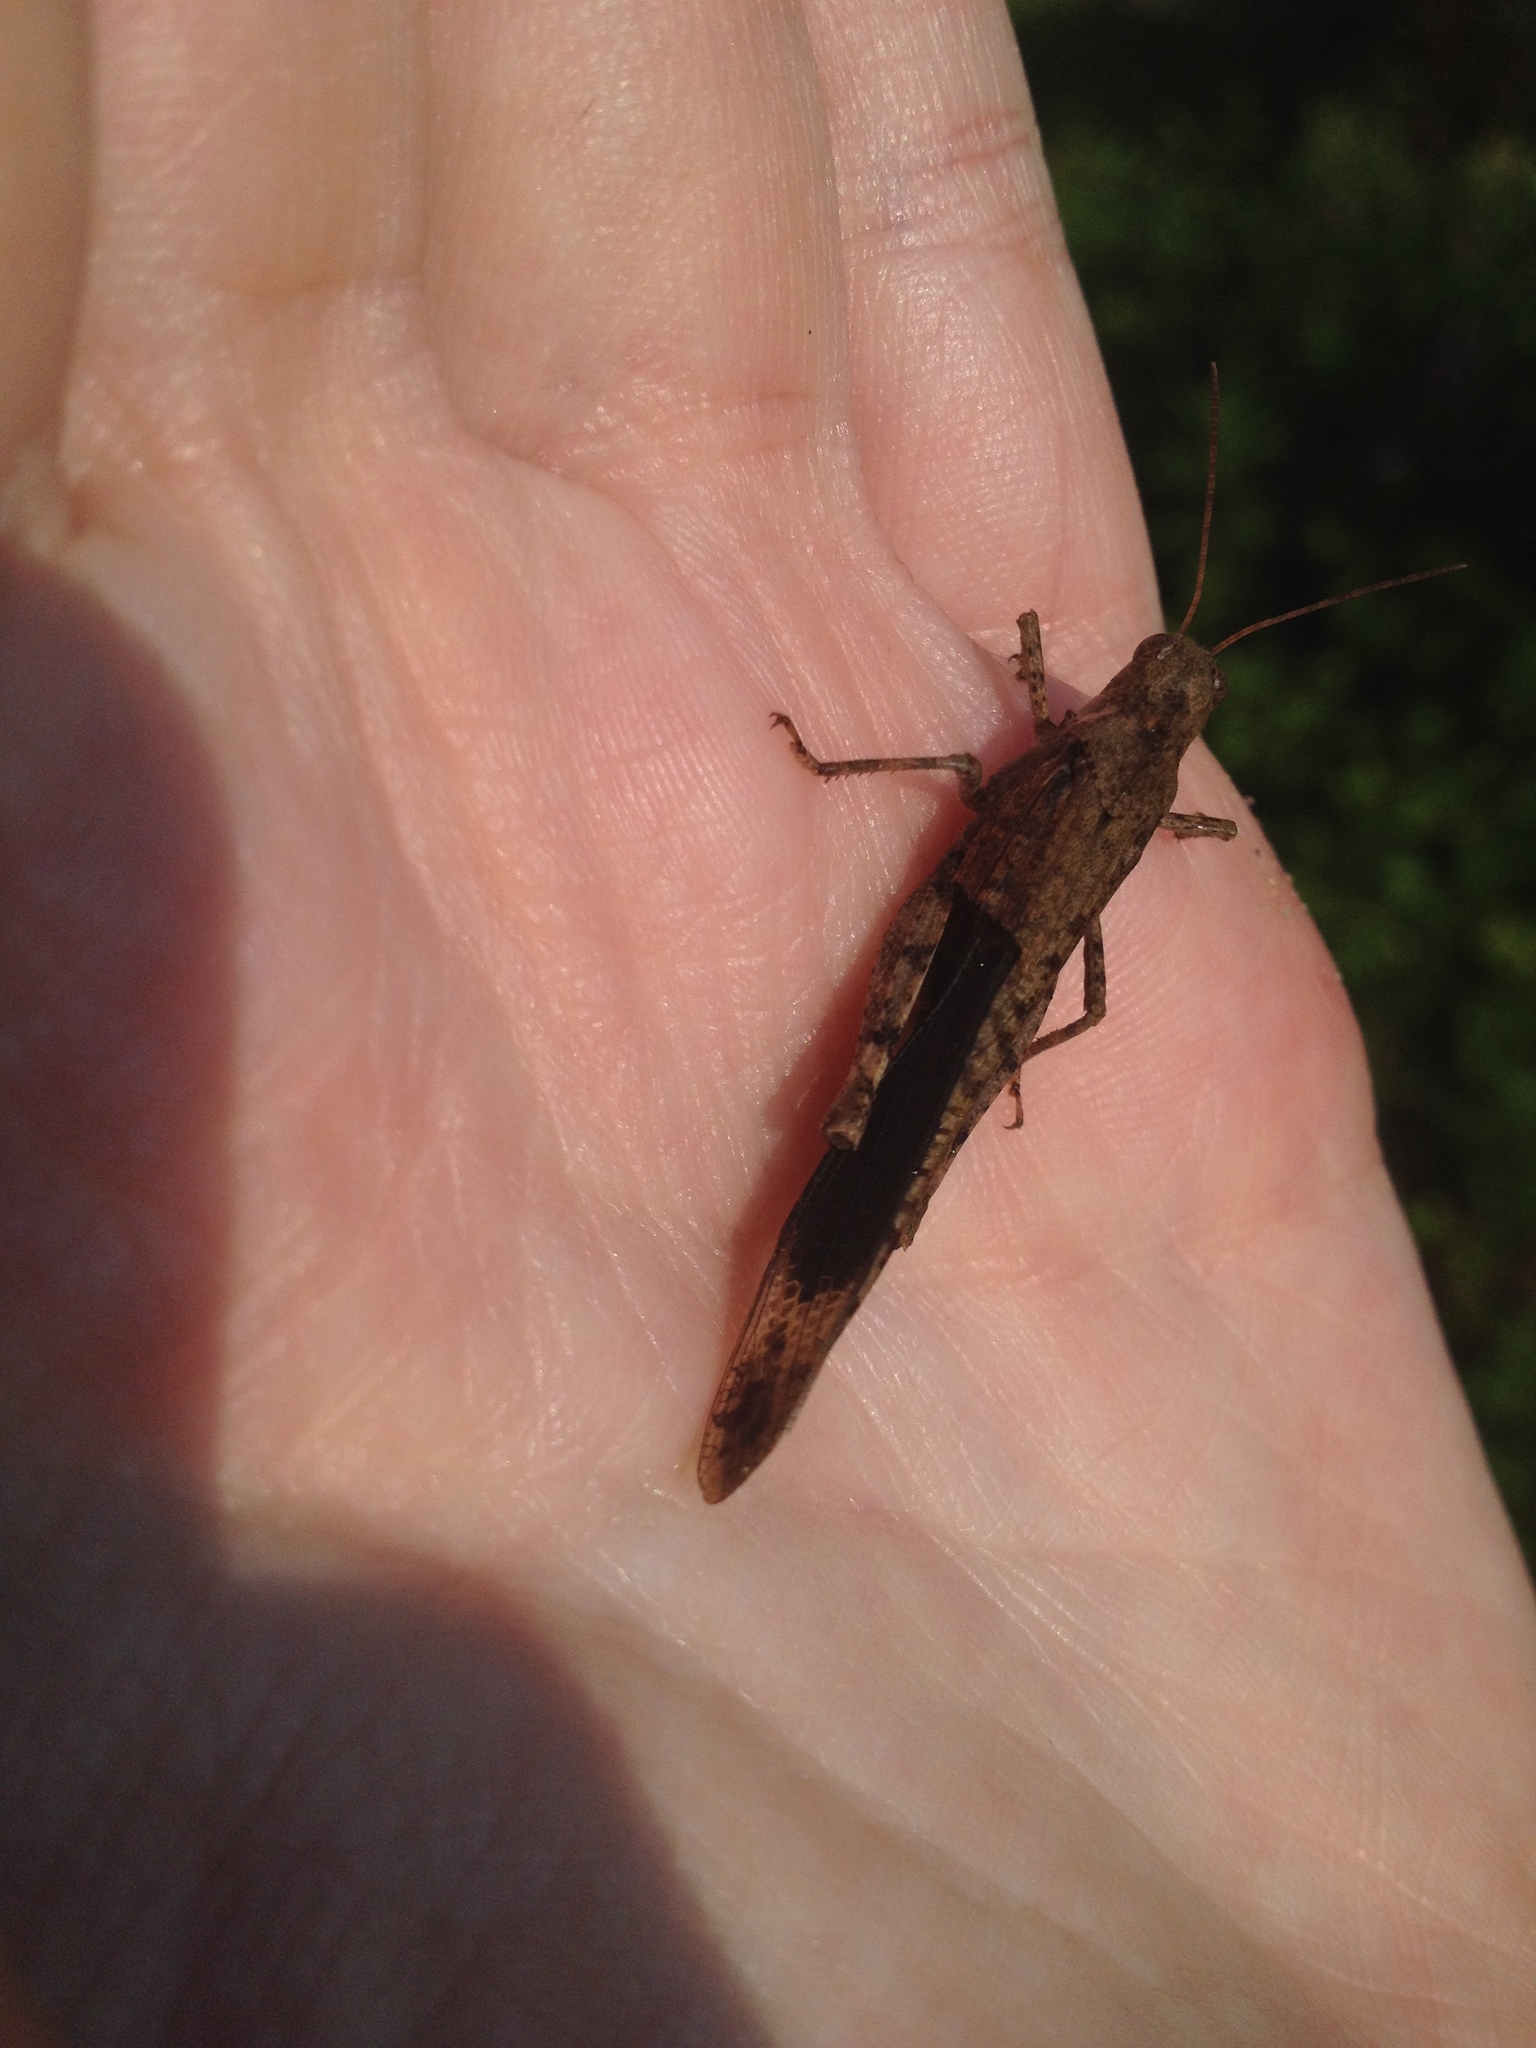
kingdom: Animalia
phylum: Arthropoda
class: Insecta
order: Orthoptera
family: Acrididae
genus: Dissosteira
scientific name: Dissosteira carolina
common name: Carolina grasshopper
